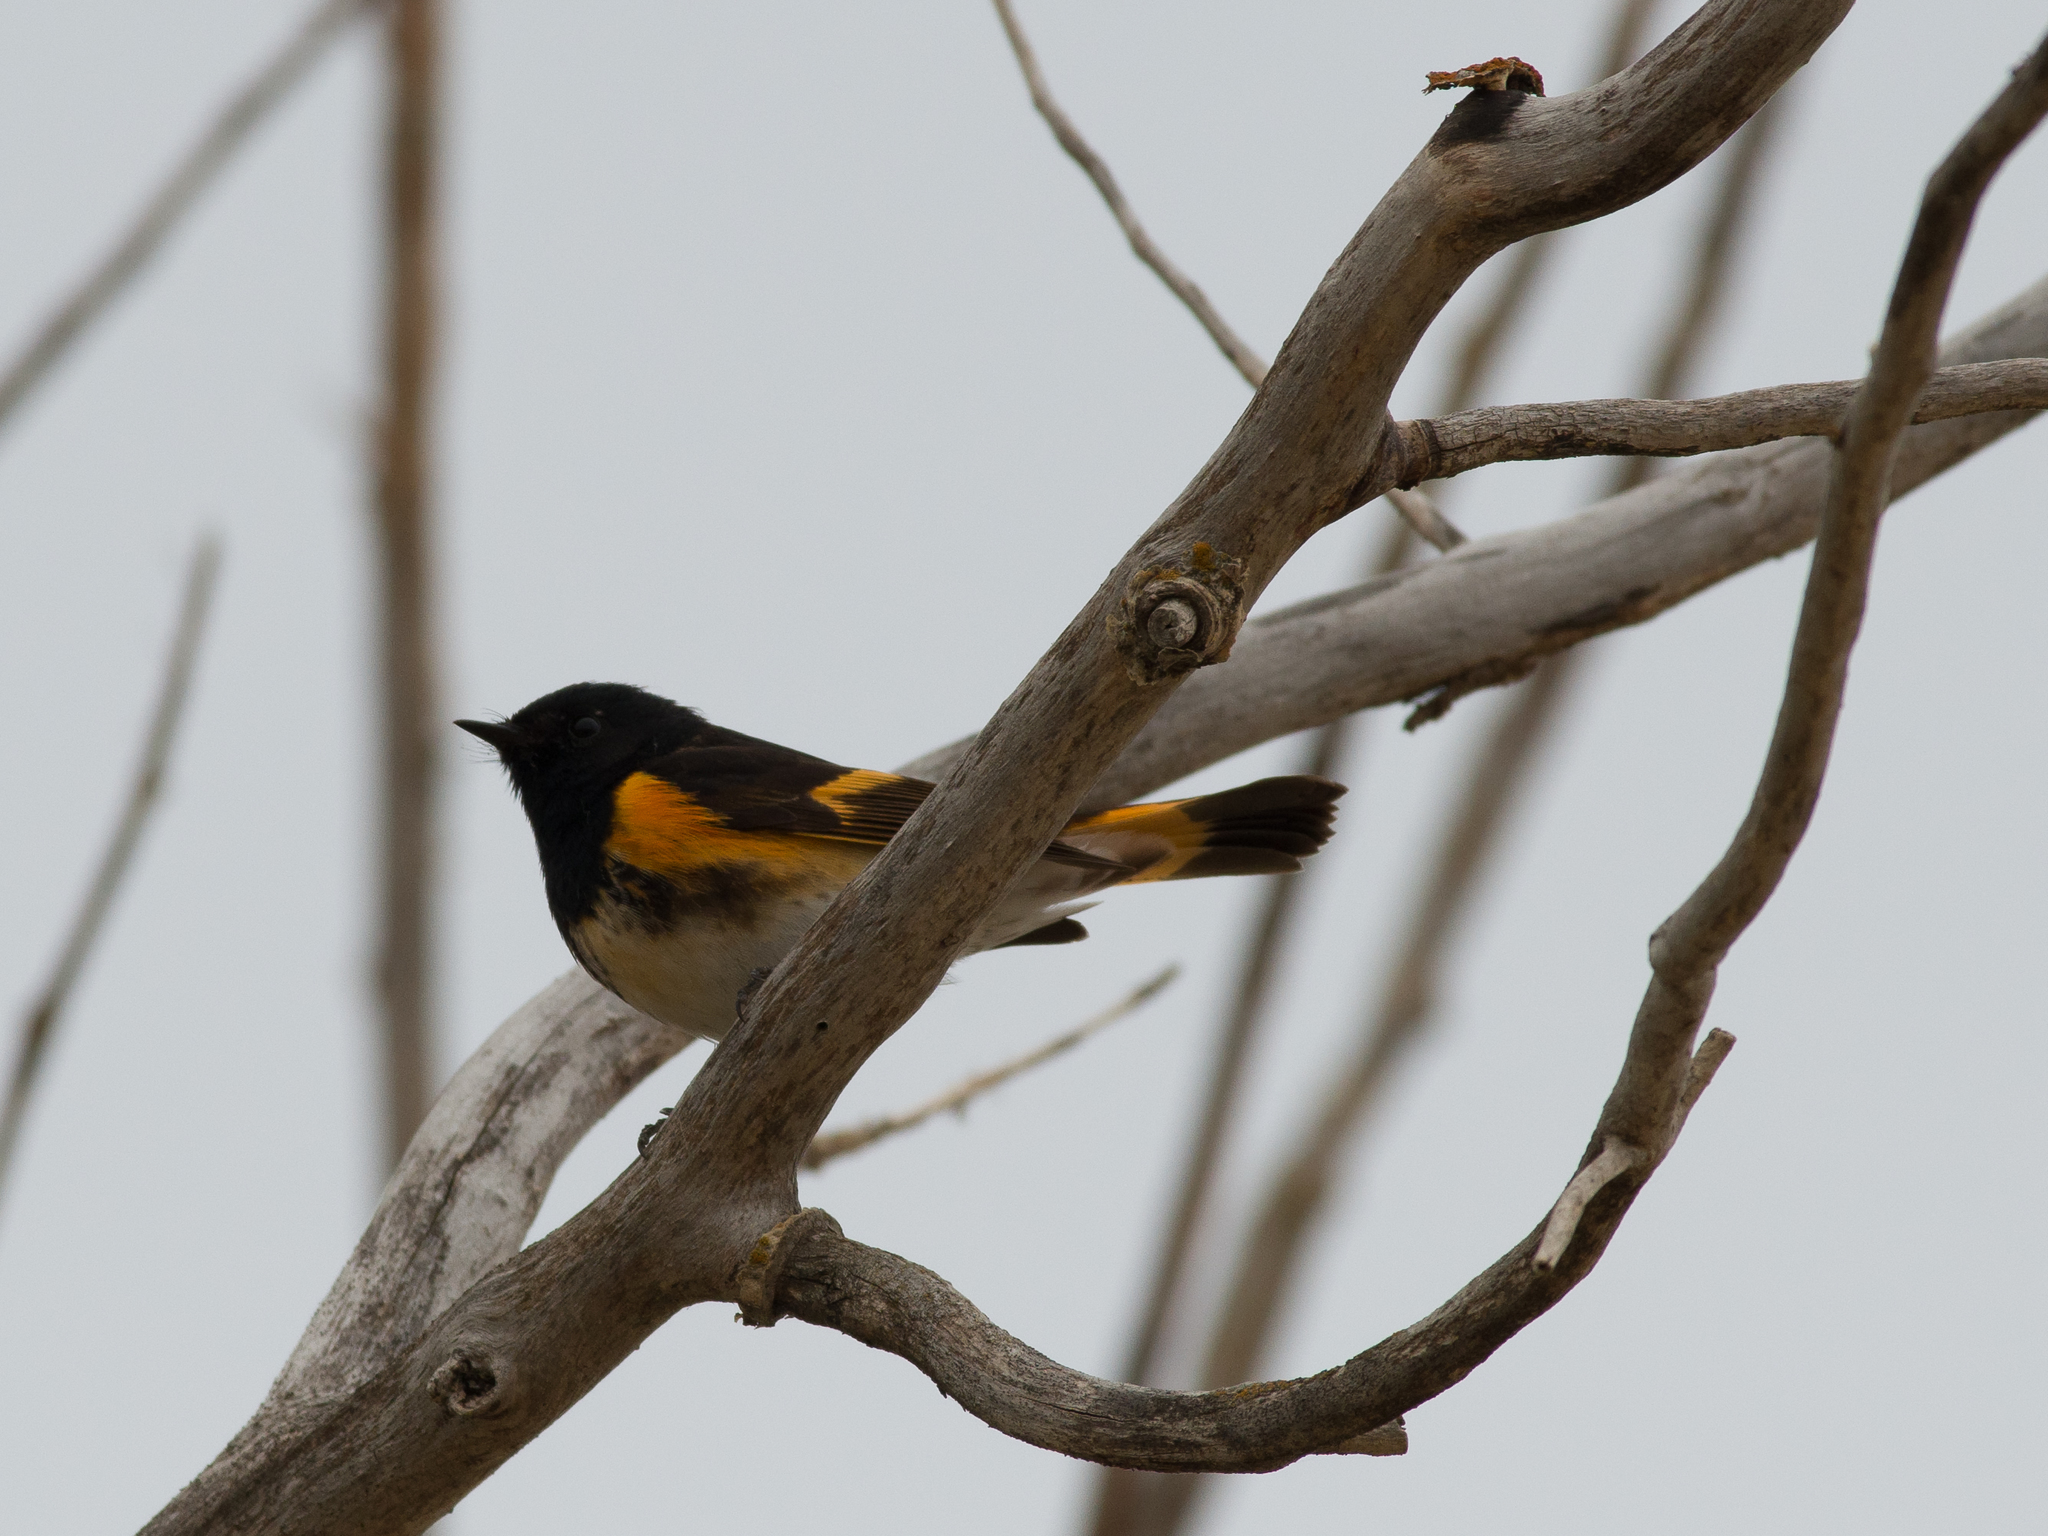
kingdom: Animalia
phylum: Chordata
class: Aves
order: Passeriformes
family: Parulidae
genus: Setophaga
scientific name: Setophaga ruticilla
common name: American redstart
